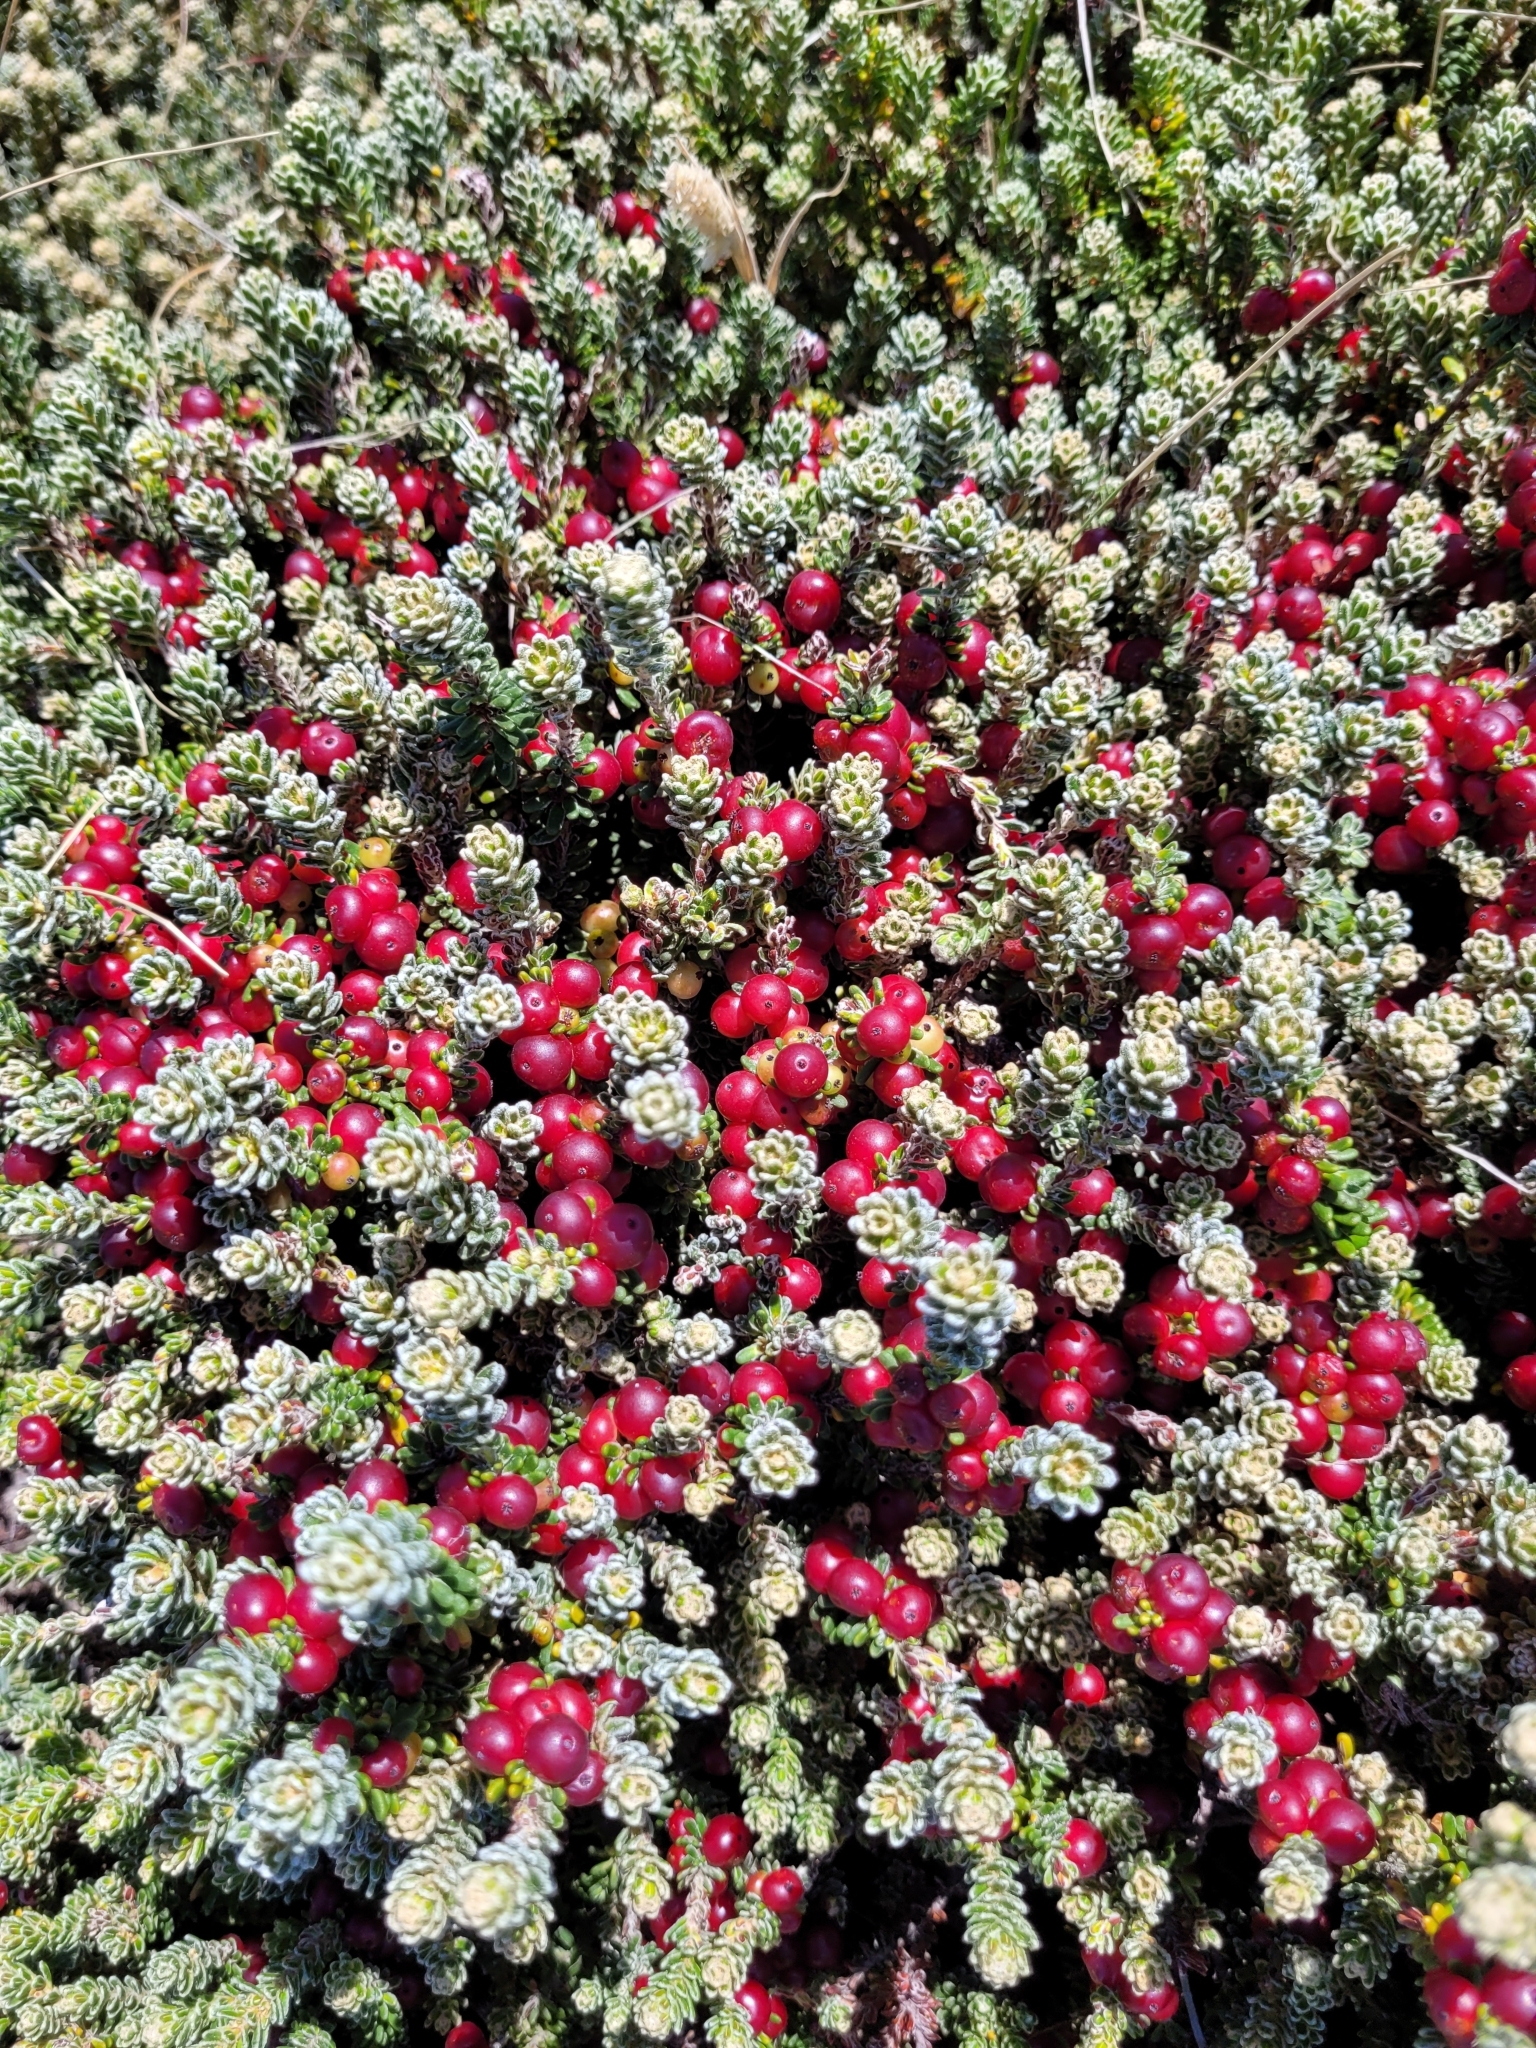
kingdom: Plantae
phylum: Tracheophyta
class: Magnoliopsida
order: Ericales
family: Ericaceae
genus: Empetrum
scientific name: Empetrum rubrum
